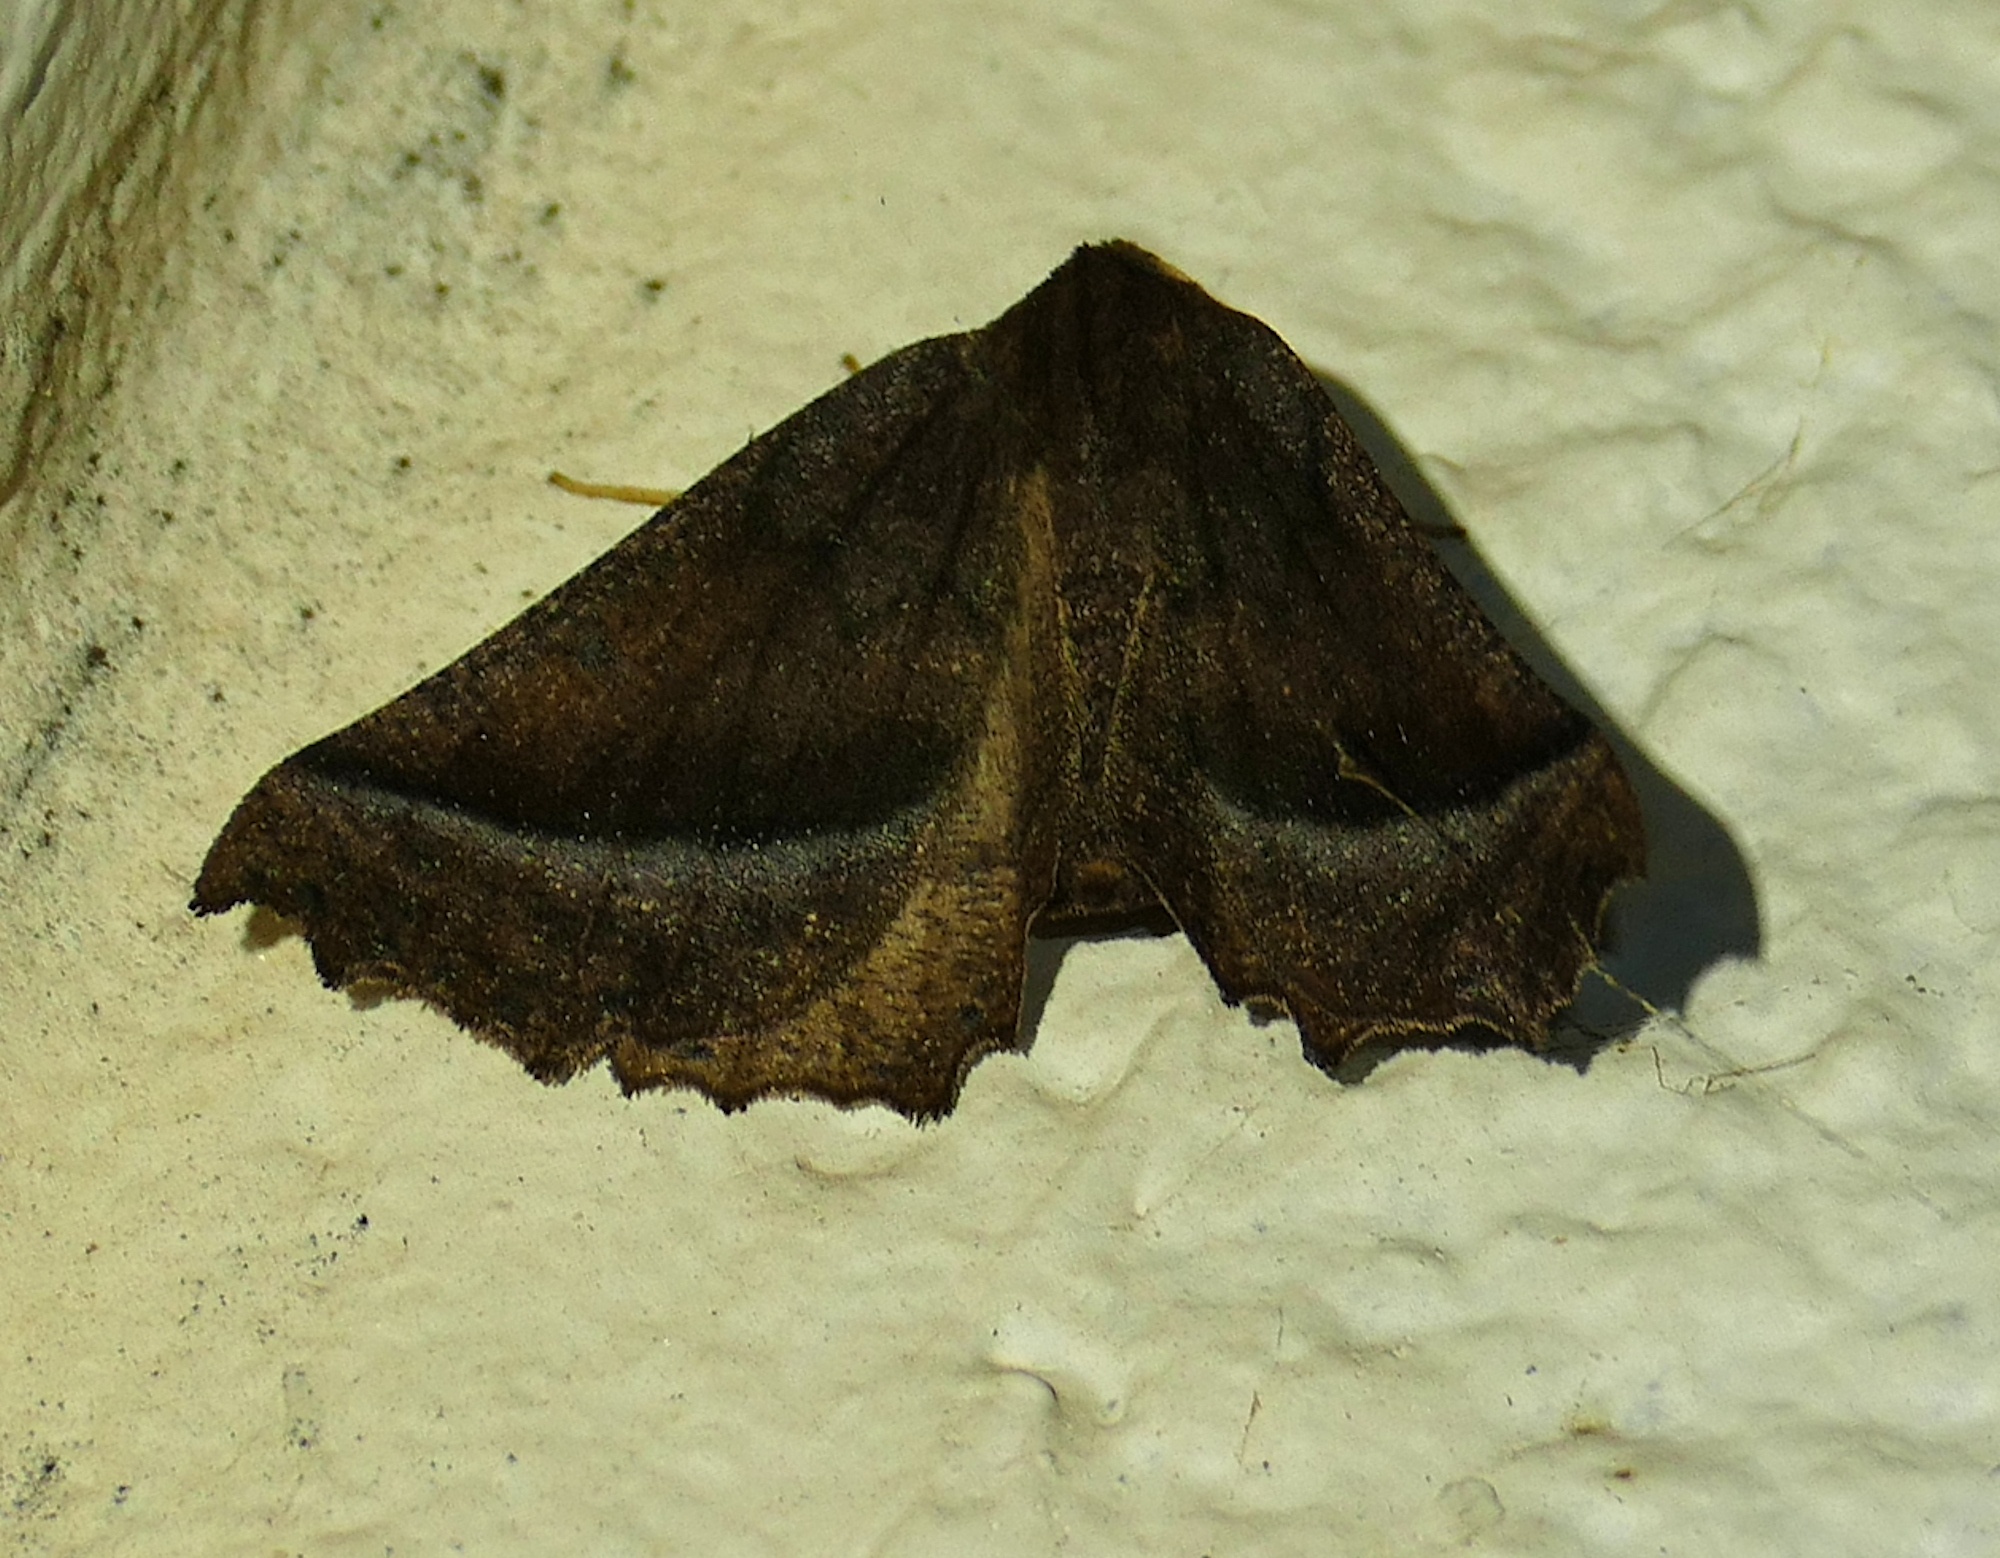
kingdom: Animalia
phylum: Arthropoda
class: Insecta
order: Lepidoptera
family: Geometridae
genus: Pero
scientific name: Pero zalissaria
